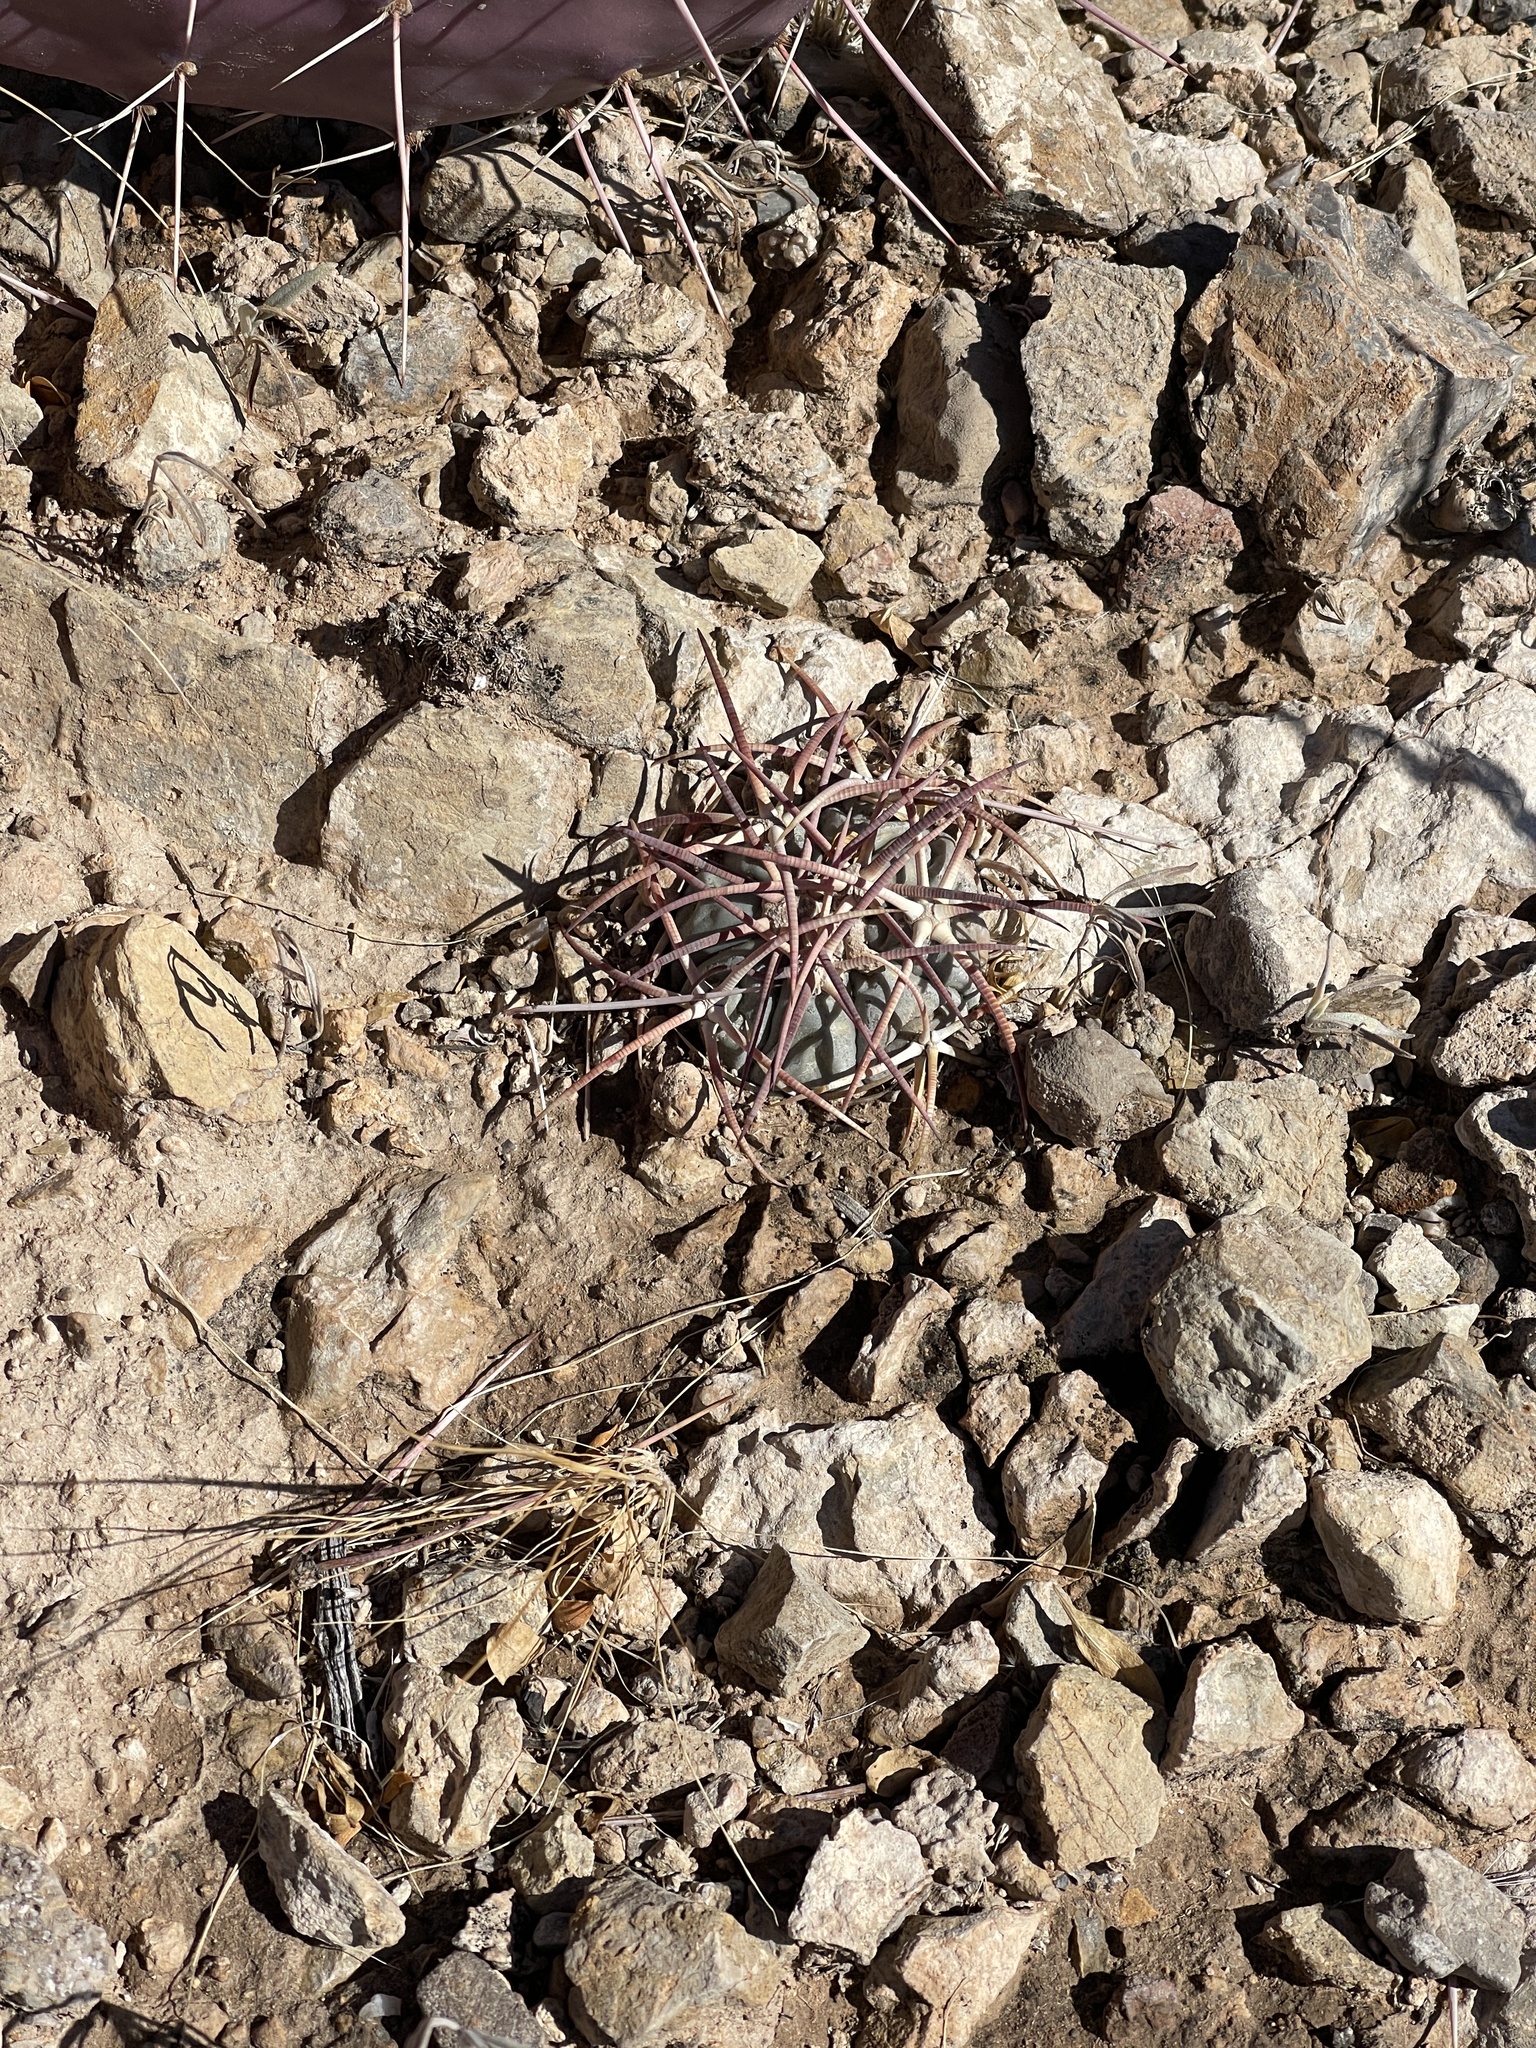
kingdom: Plantae
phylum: Tracheophyta
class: Magnoliopsida
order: Caryophyllales
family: Cactaceae
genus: Echinocactus
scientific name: Echinocactus horizonthalonius
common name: Devilshead
